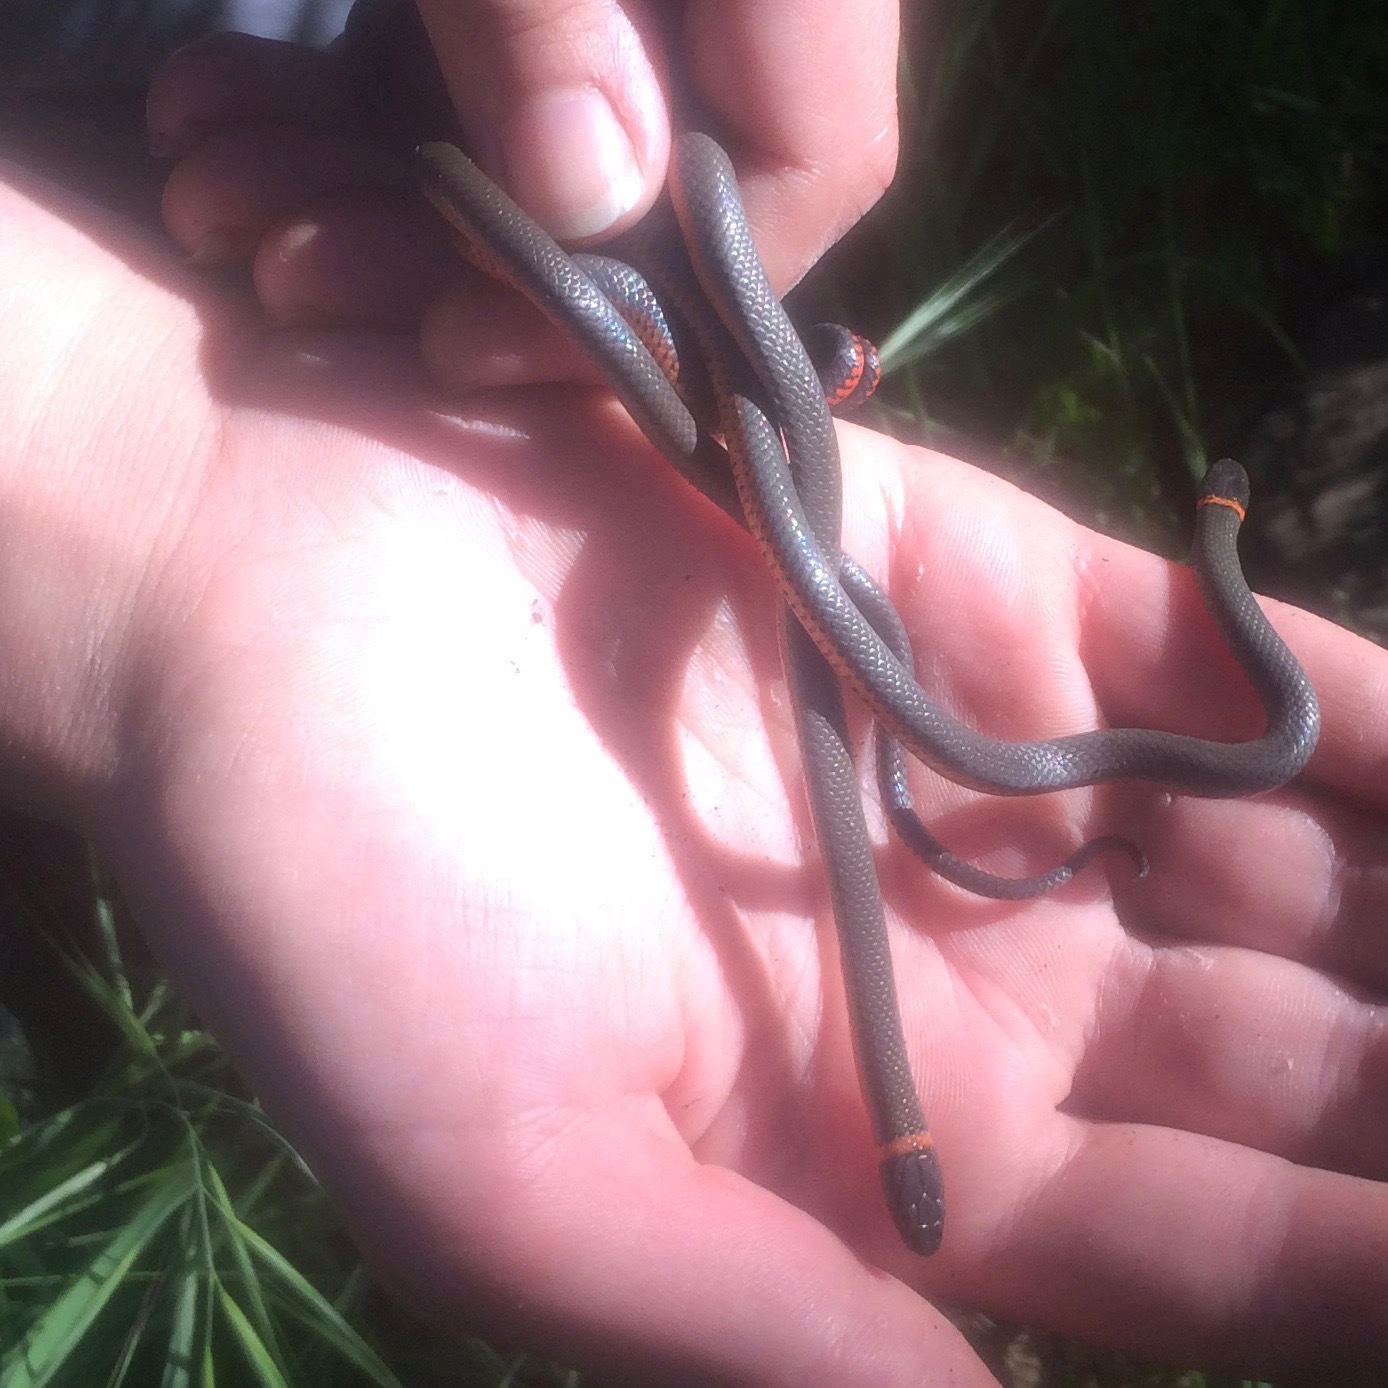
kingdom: Animalia
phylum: Chordata
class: Squamata
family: Colubridae
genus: Diadophis
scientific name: Diadophis punctatus
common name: Ringneck snake
